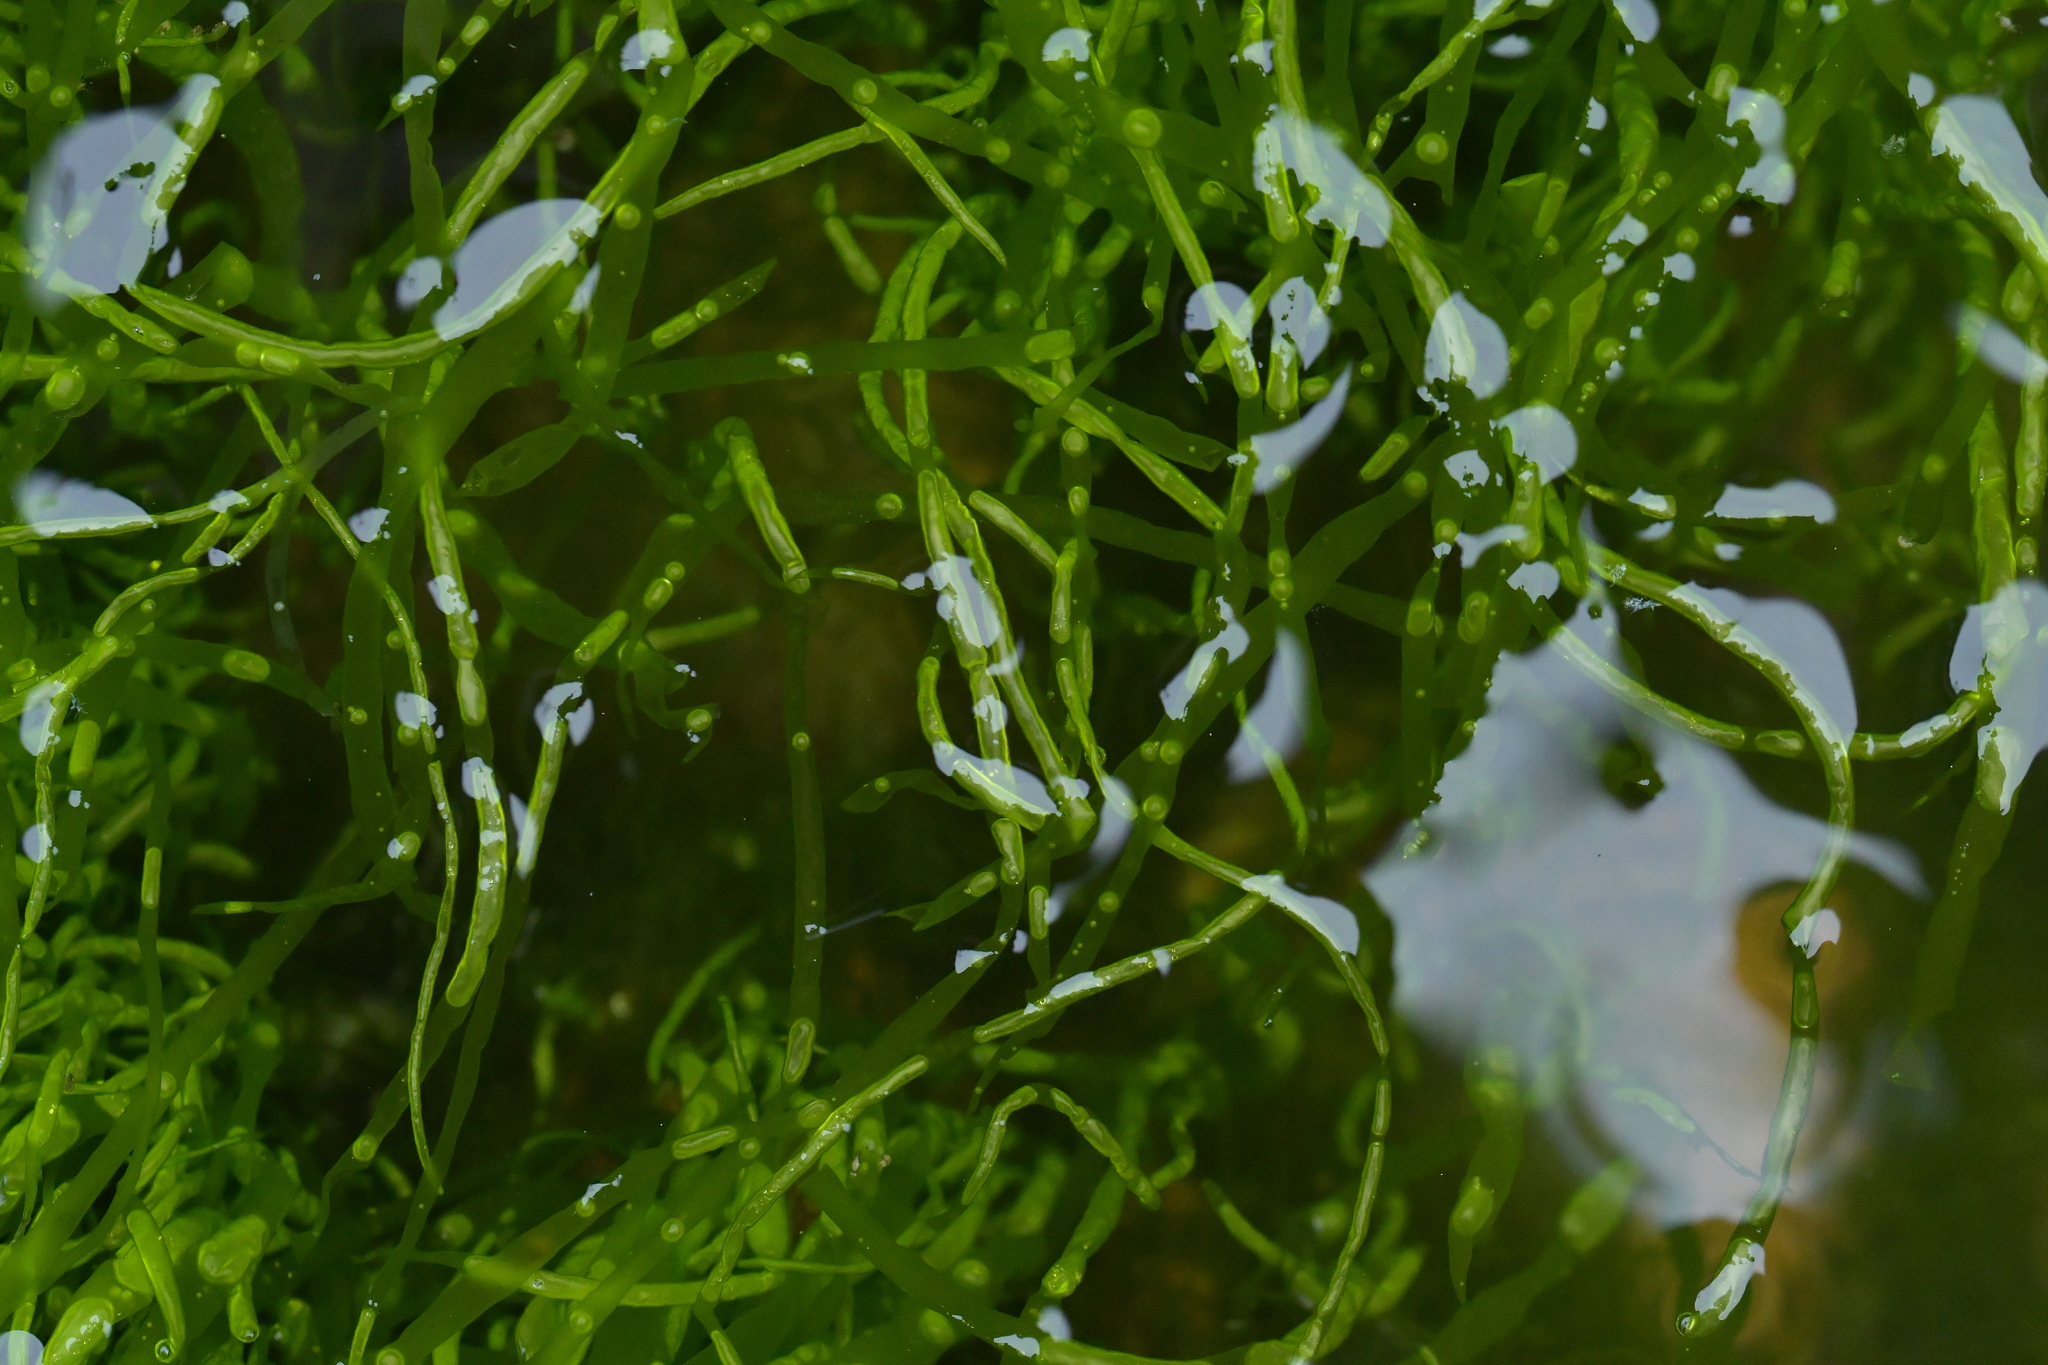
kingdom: Plantae
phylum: Chlorophyta
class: Ulvophyceae
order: Ulvales
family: Ulvaceae
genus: Ulva
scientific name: Ulva intestinalis
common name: Gut weed
